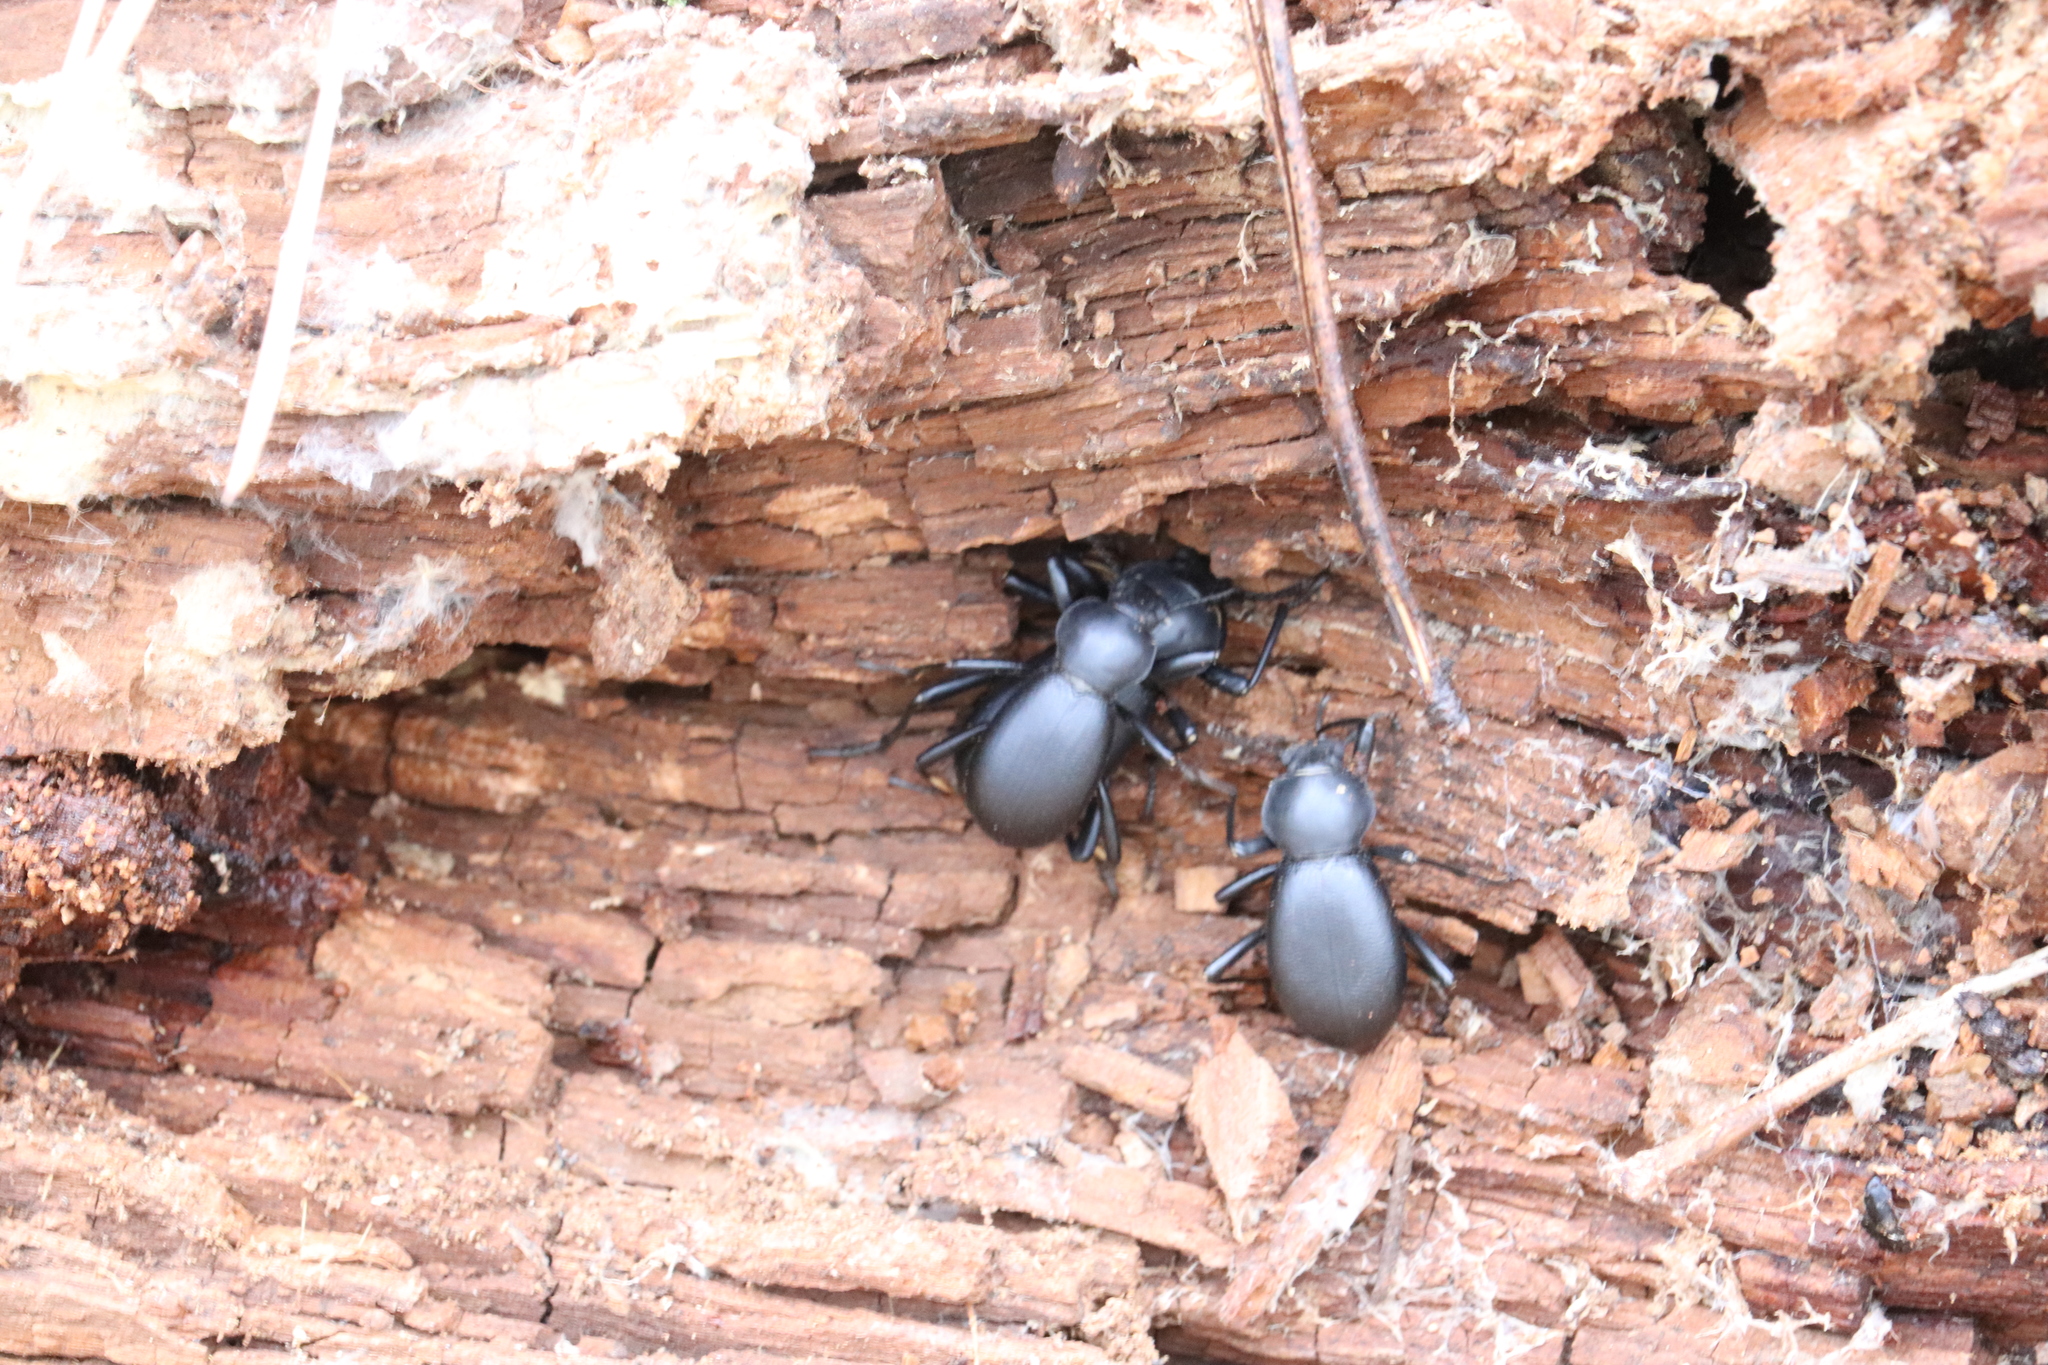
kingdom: Animalia
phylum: Arthropoda
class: Insecta
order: Coleoptera
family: Tenebrionidae
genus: Coelocnemis
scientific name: Coelocnemis dilaticollis
